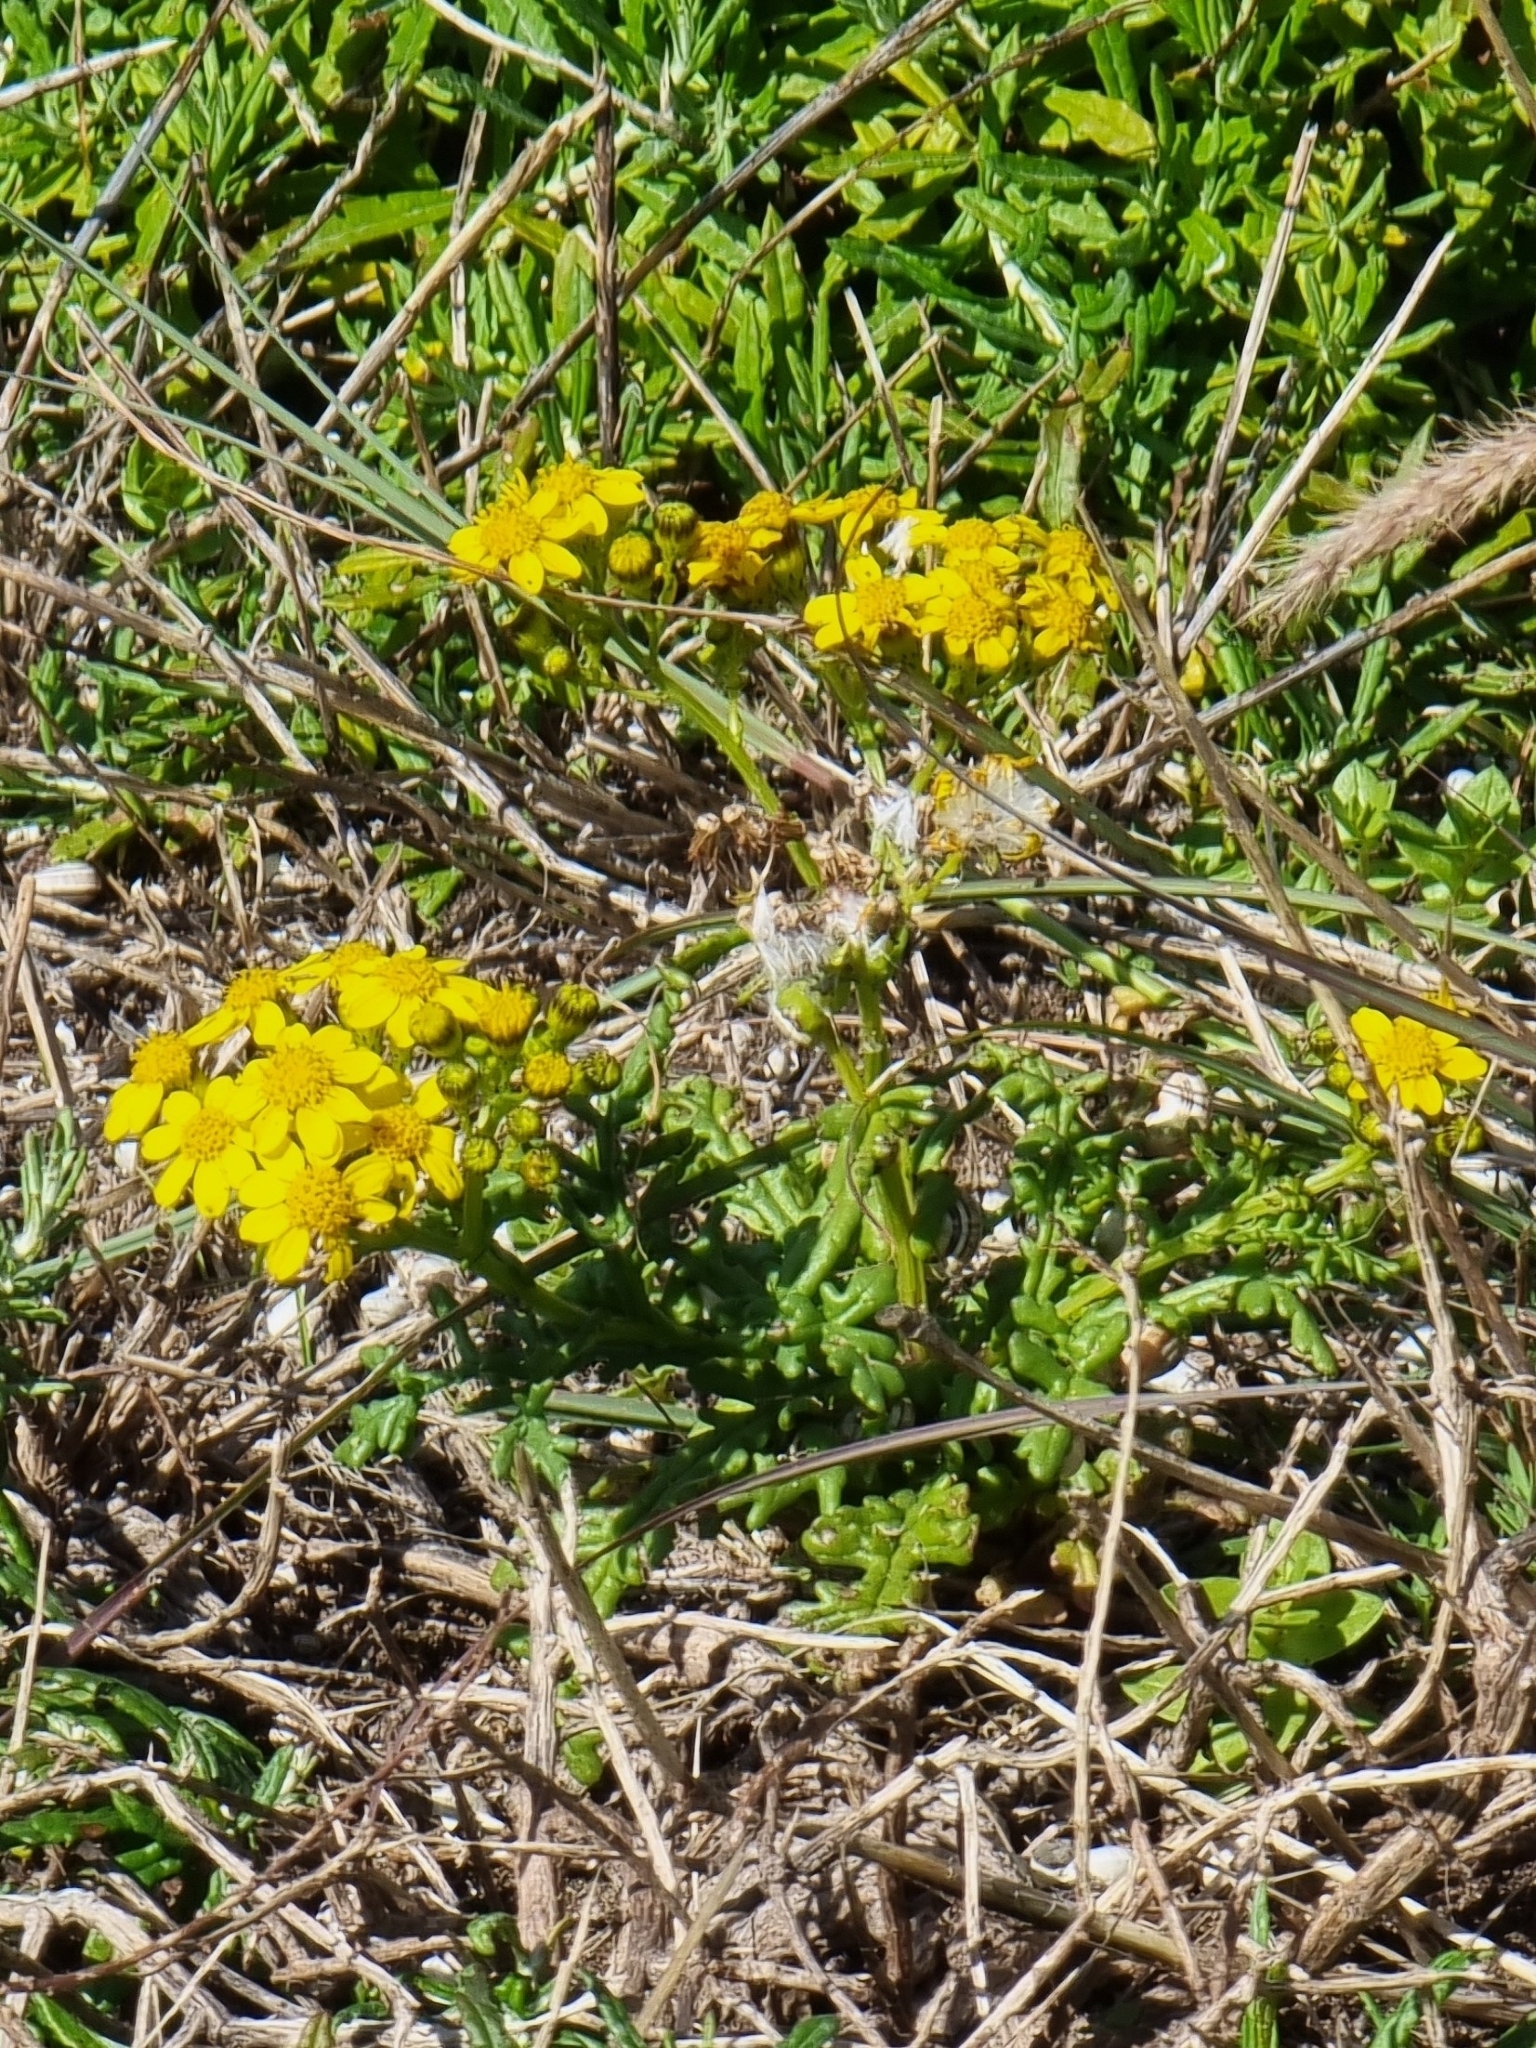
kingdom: Plantae
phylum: Tracheophyta
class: Magnoliopsida
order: Asterales
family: Asteraceae
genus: Senecio
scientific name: Senecio incrassatus
